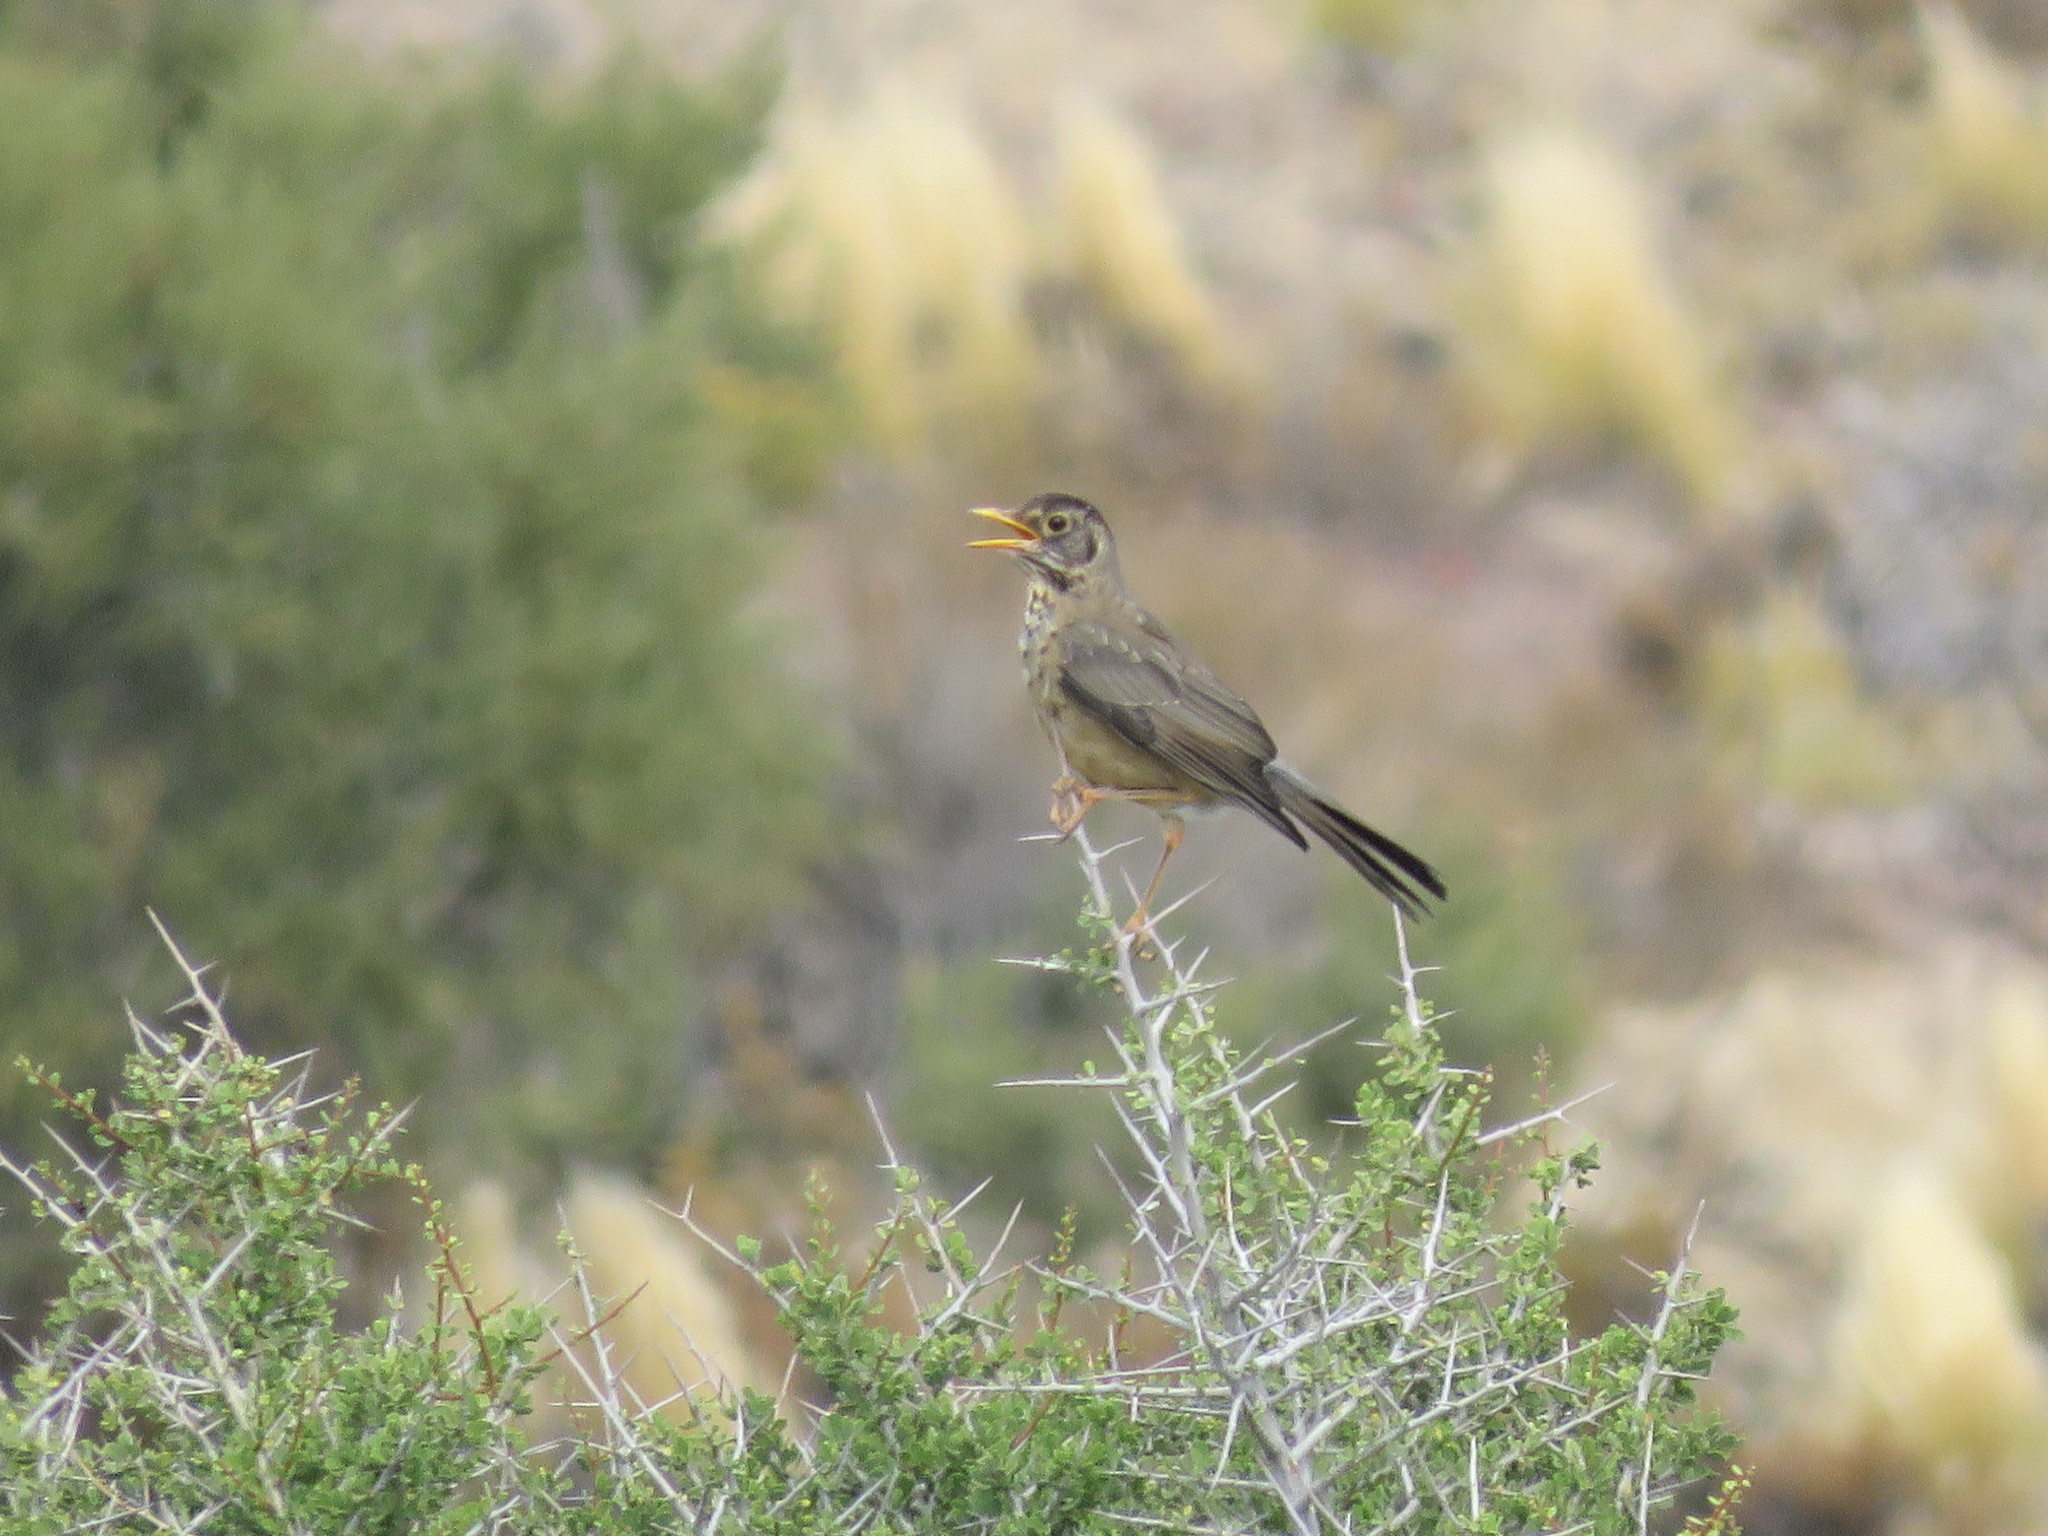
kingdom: Animalia
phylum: Chordata
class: Aves
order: Passeriformes
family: Turdidae
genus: Turdus
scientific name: Turdus falcklandii
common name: Austral thrush
